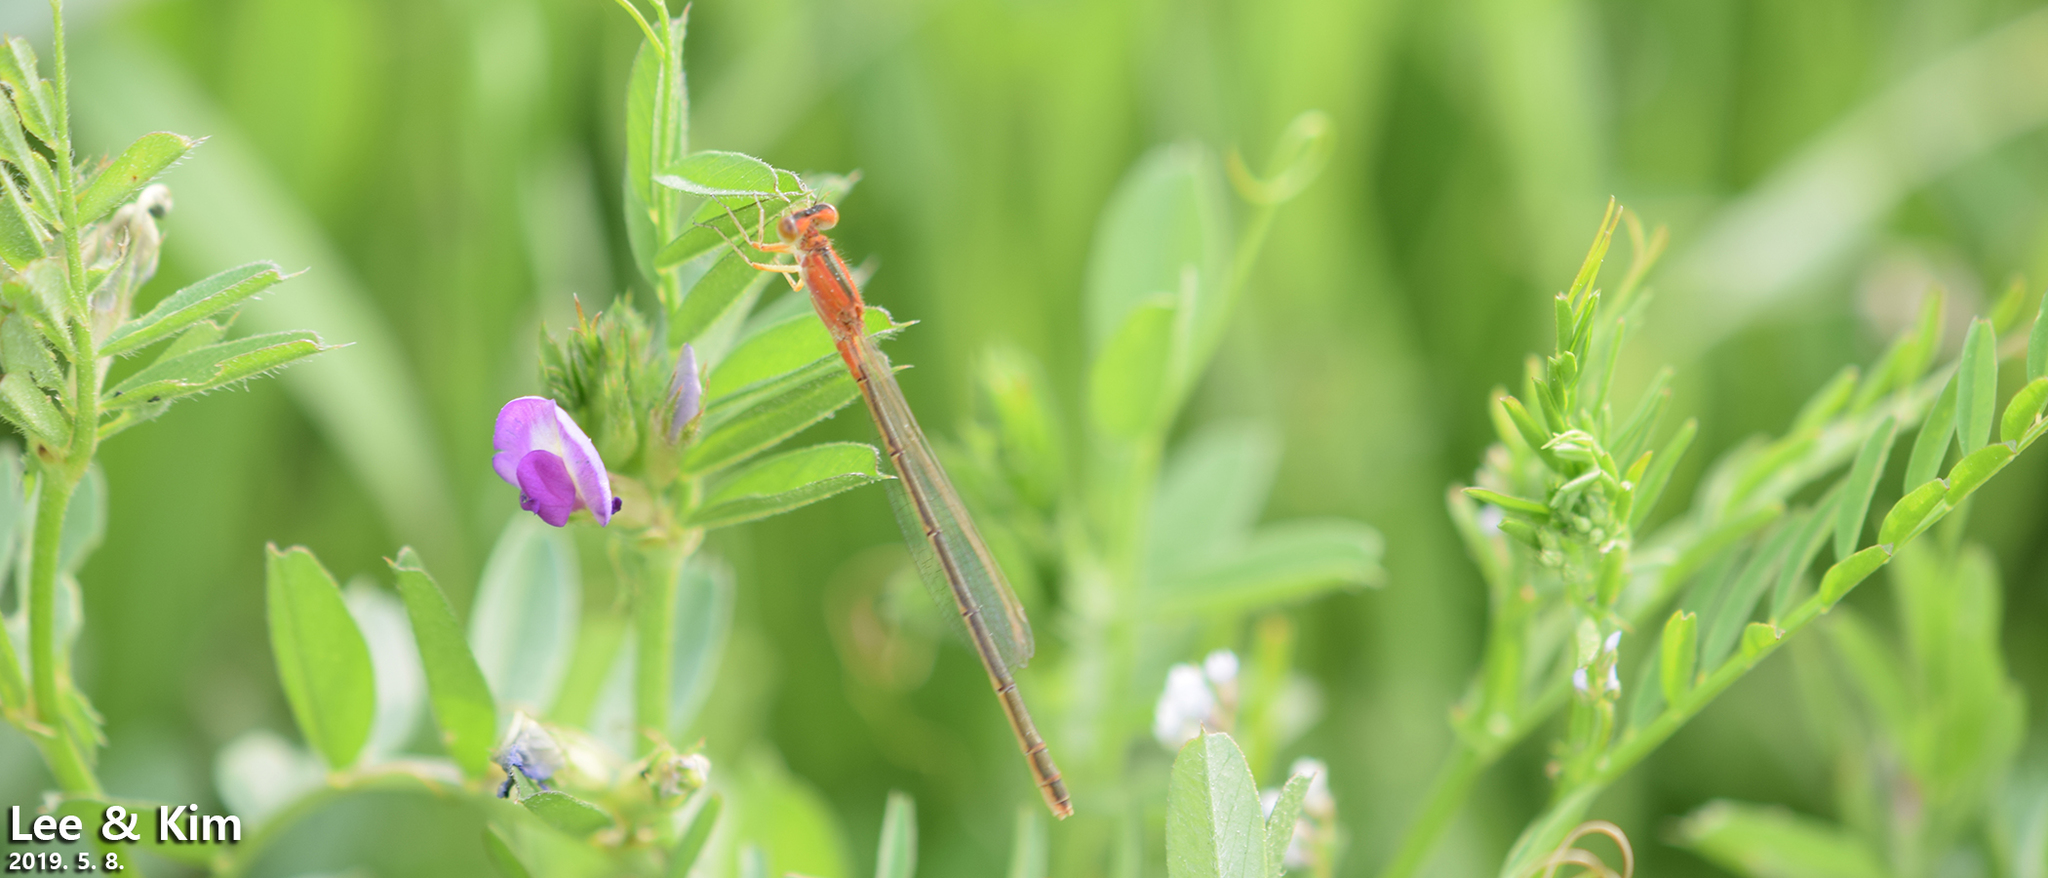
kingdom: Animalia
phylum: Arthropoda
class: Insecta
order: Odonata
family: Coenagrionidae
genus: Ischnura
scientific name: Ischnura senegalensis
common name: Tropical bluetail
